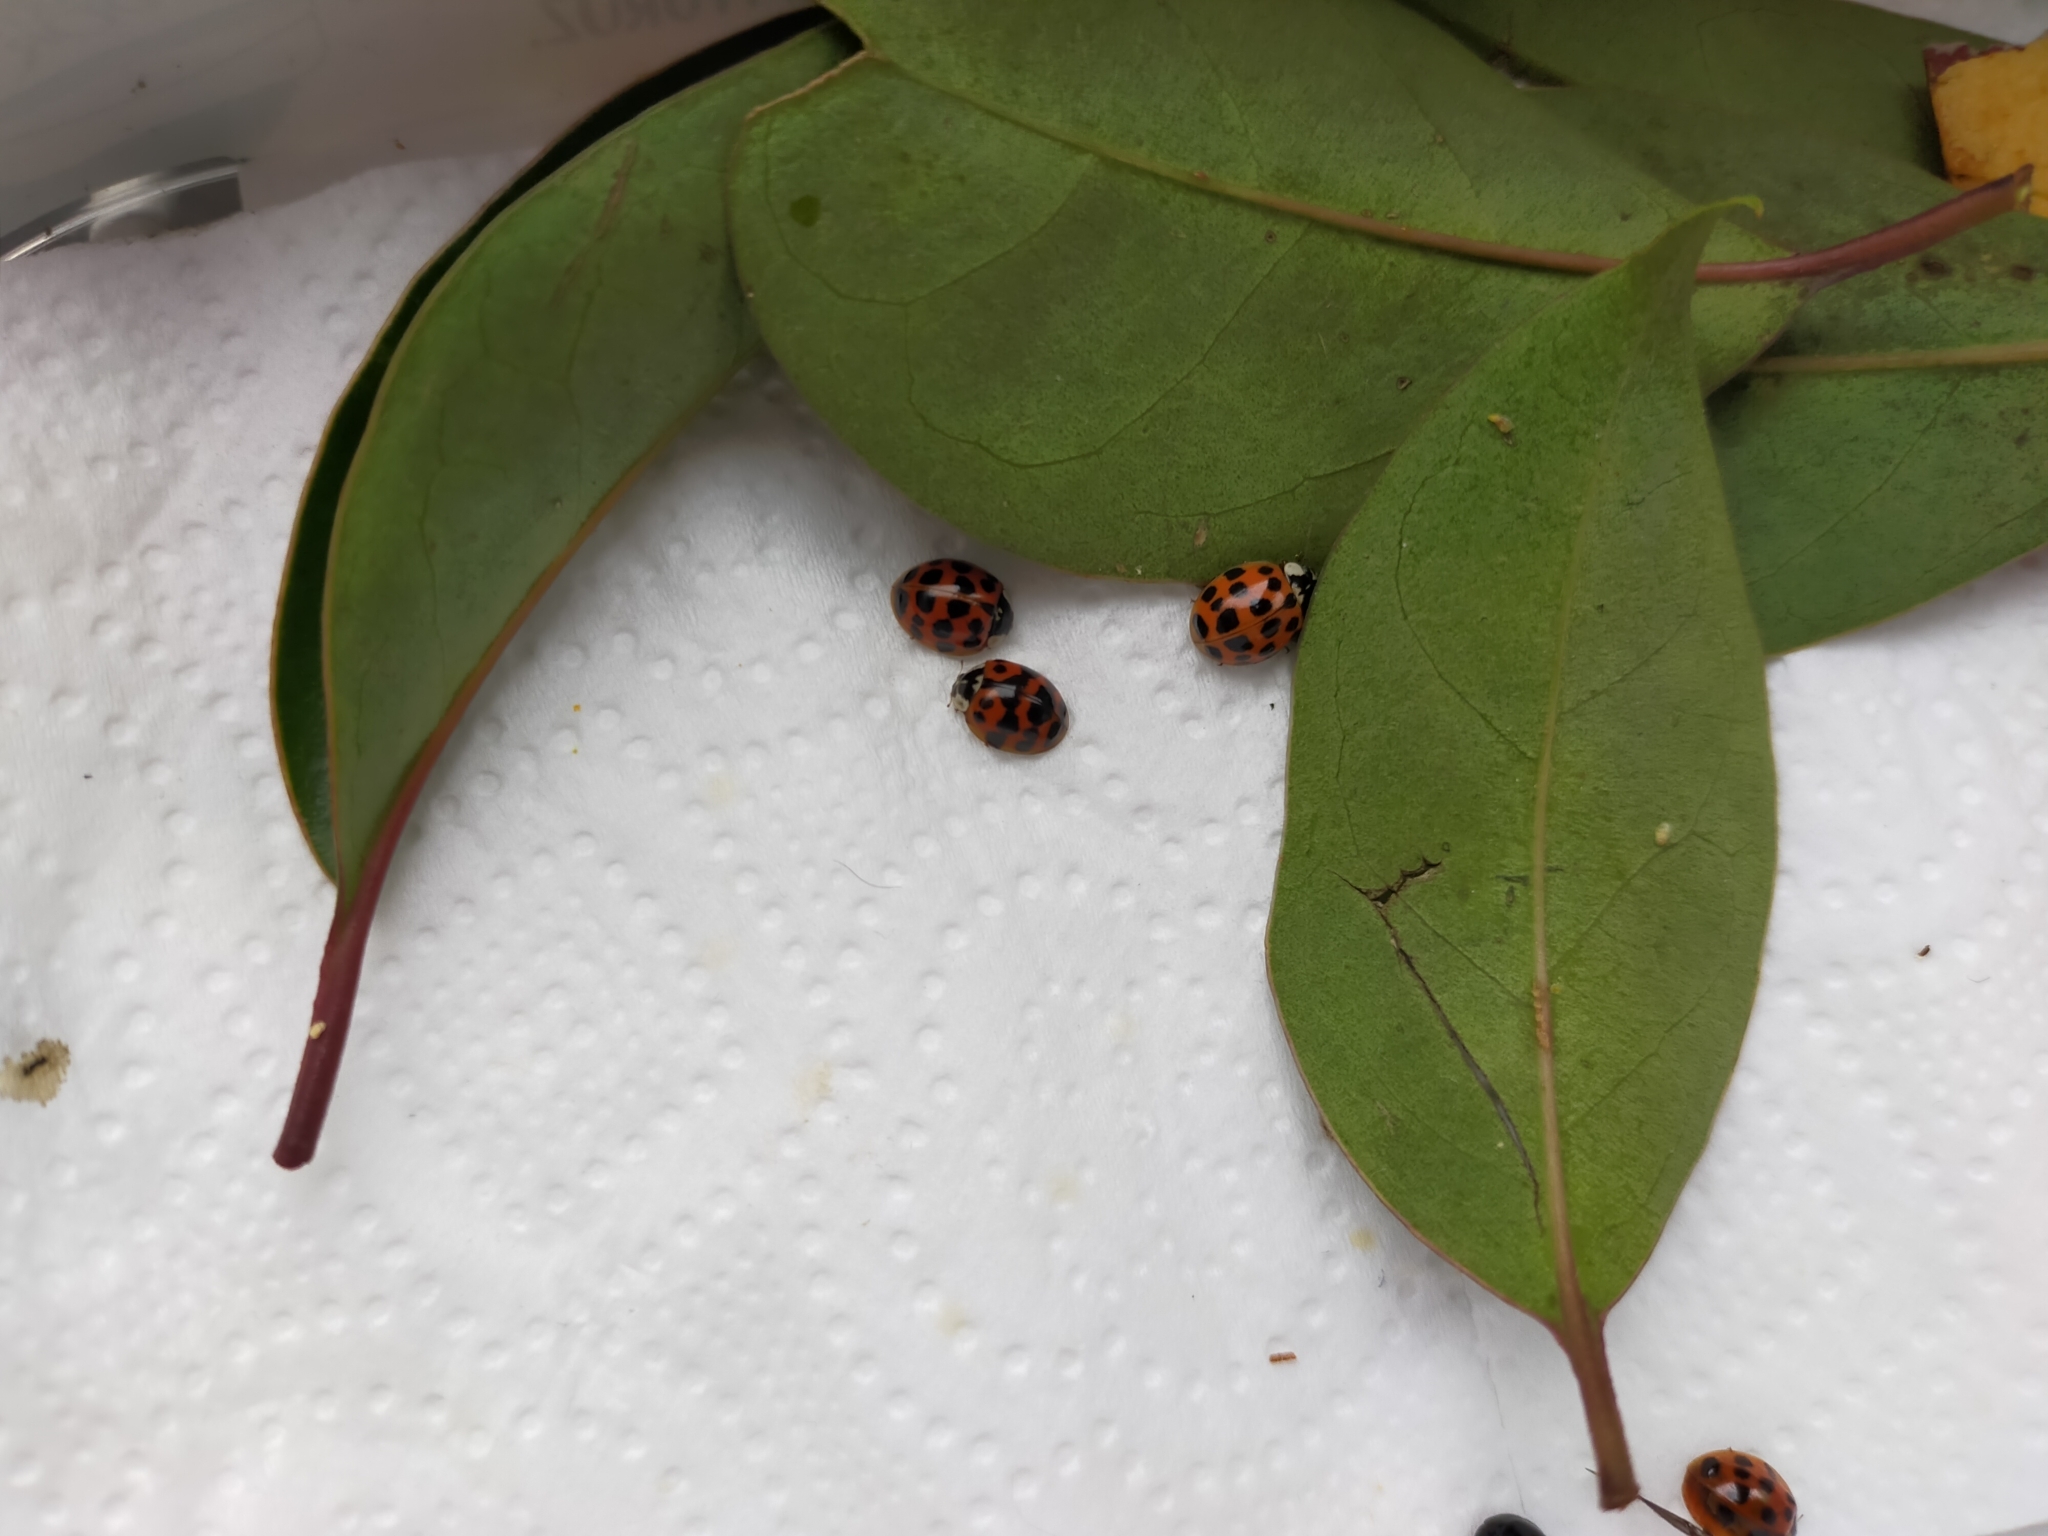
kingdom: Animalia
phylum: Arthropoda
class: Insecta
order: Coleoptera
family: Coccinellidae
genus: Harmonia
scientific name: Harmonia axyridis
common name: Harlequin ladybird
